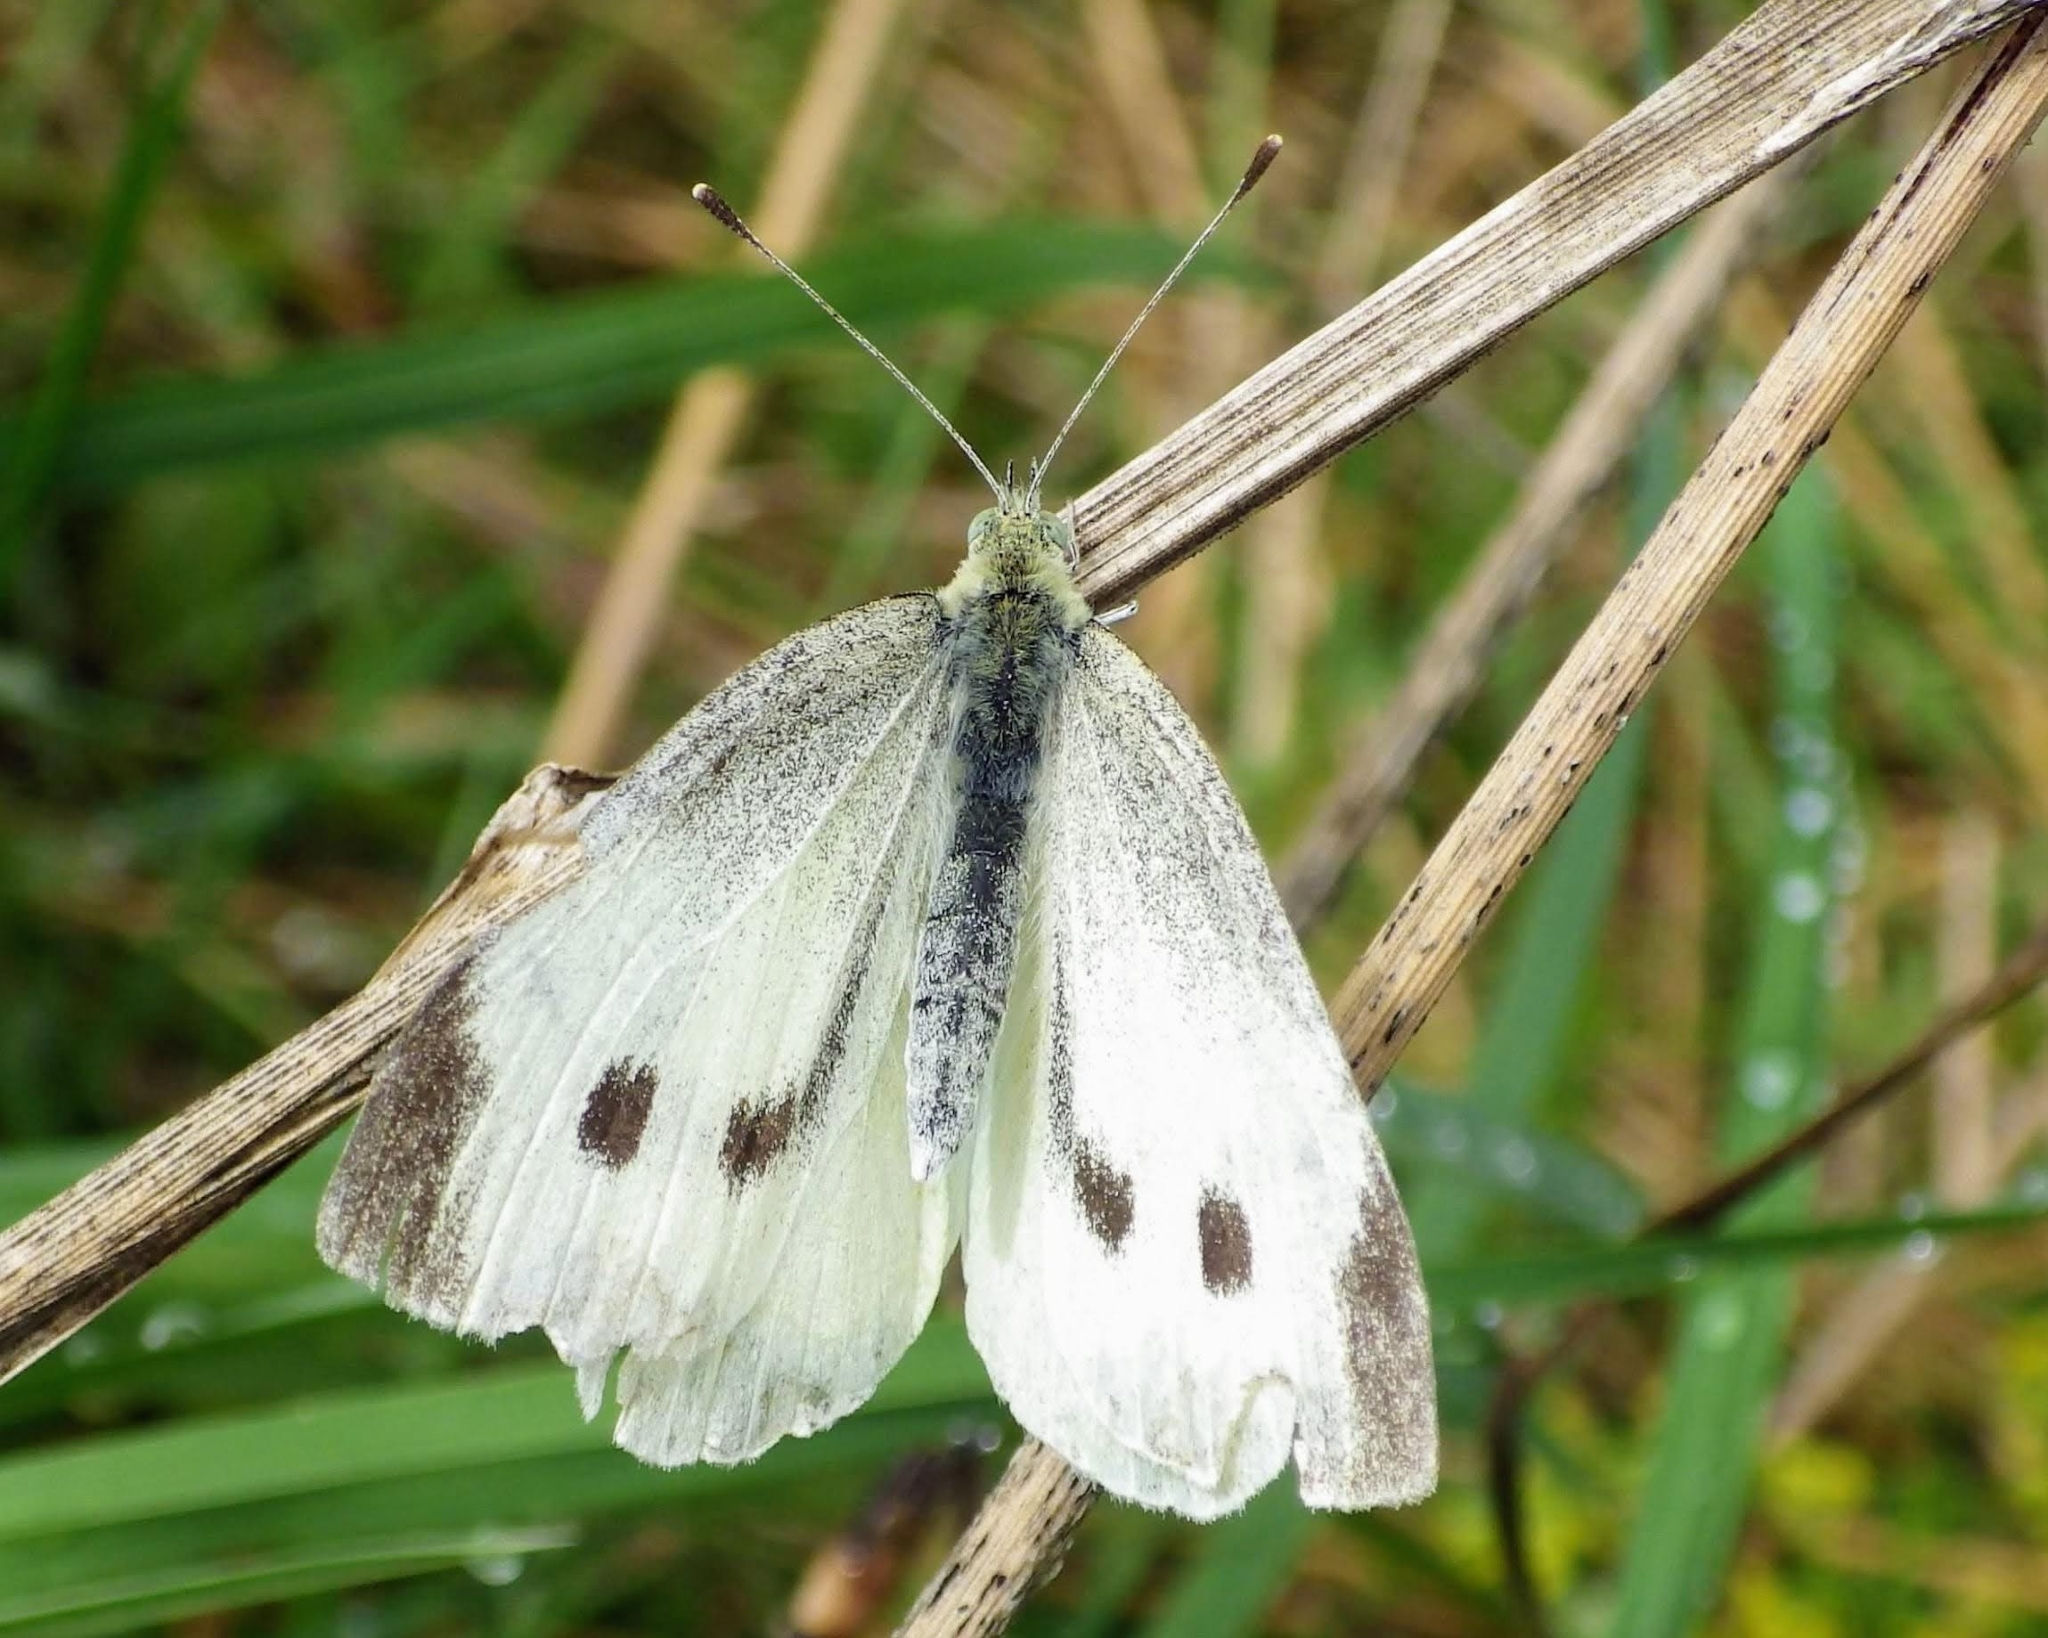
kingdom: Animalia
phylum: Arthropoda
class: Insecta
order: Lepidoptera
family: Pieridae
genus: Pieris
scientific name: Pieris rapae
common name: Small white
